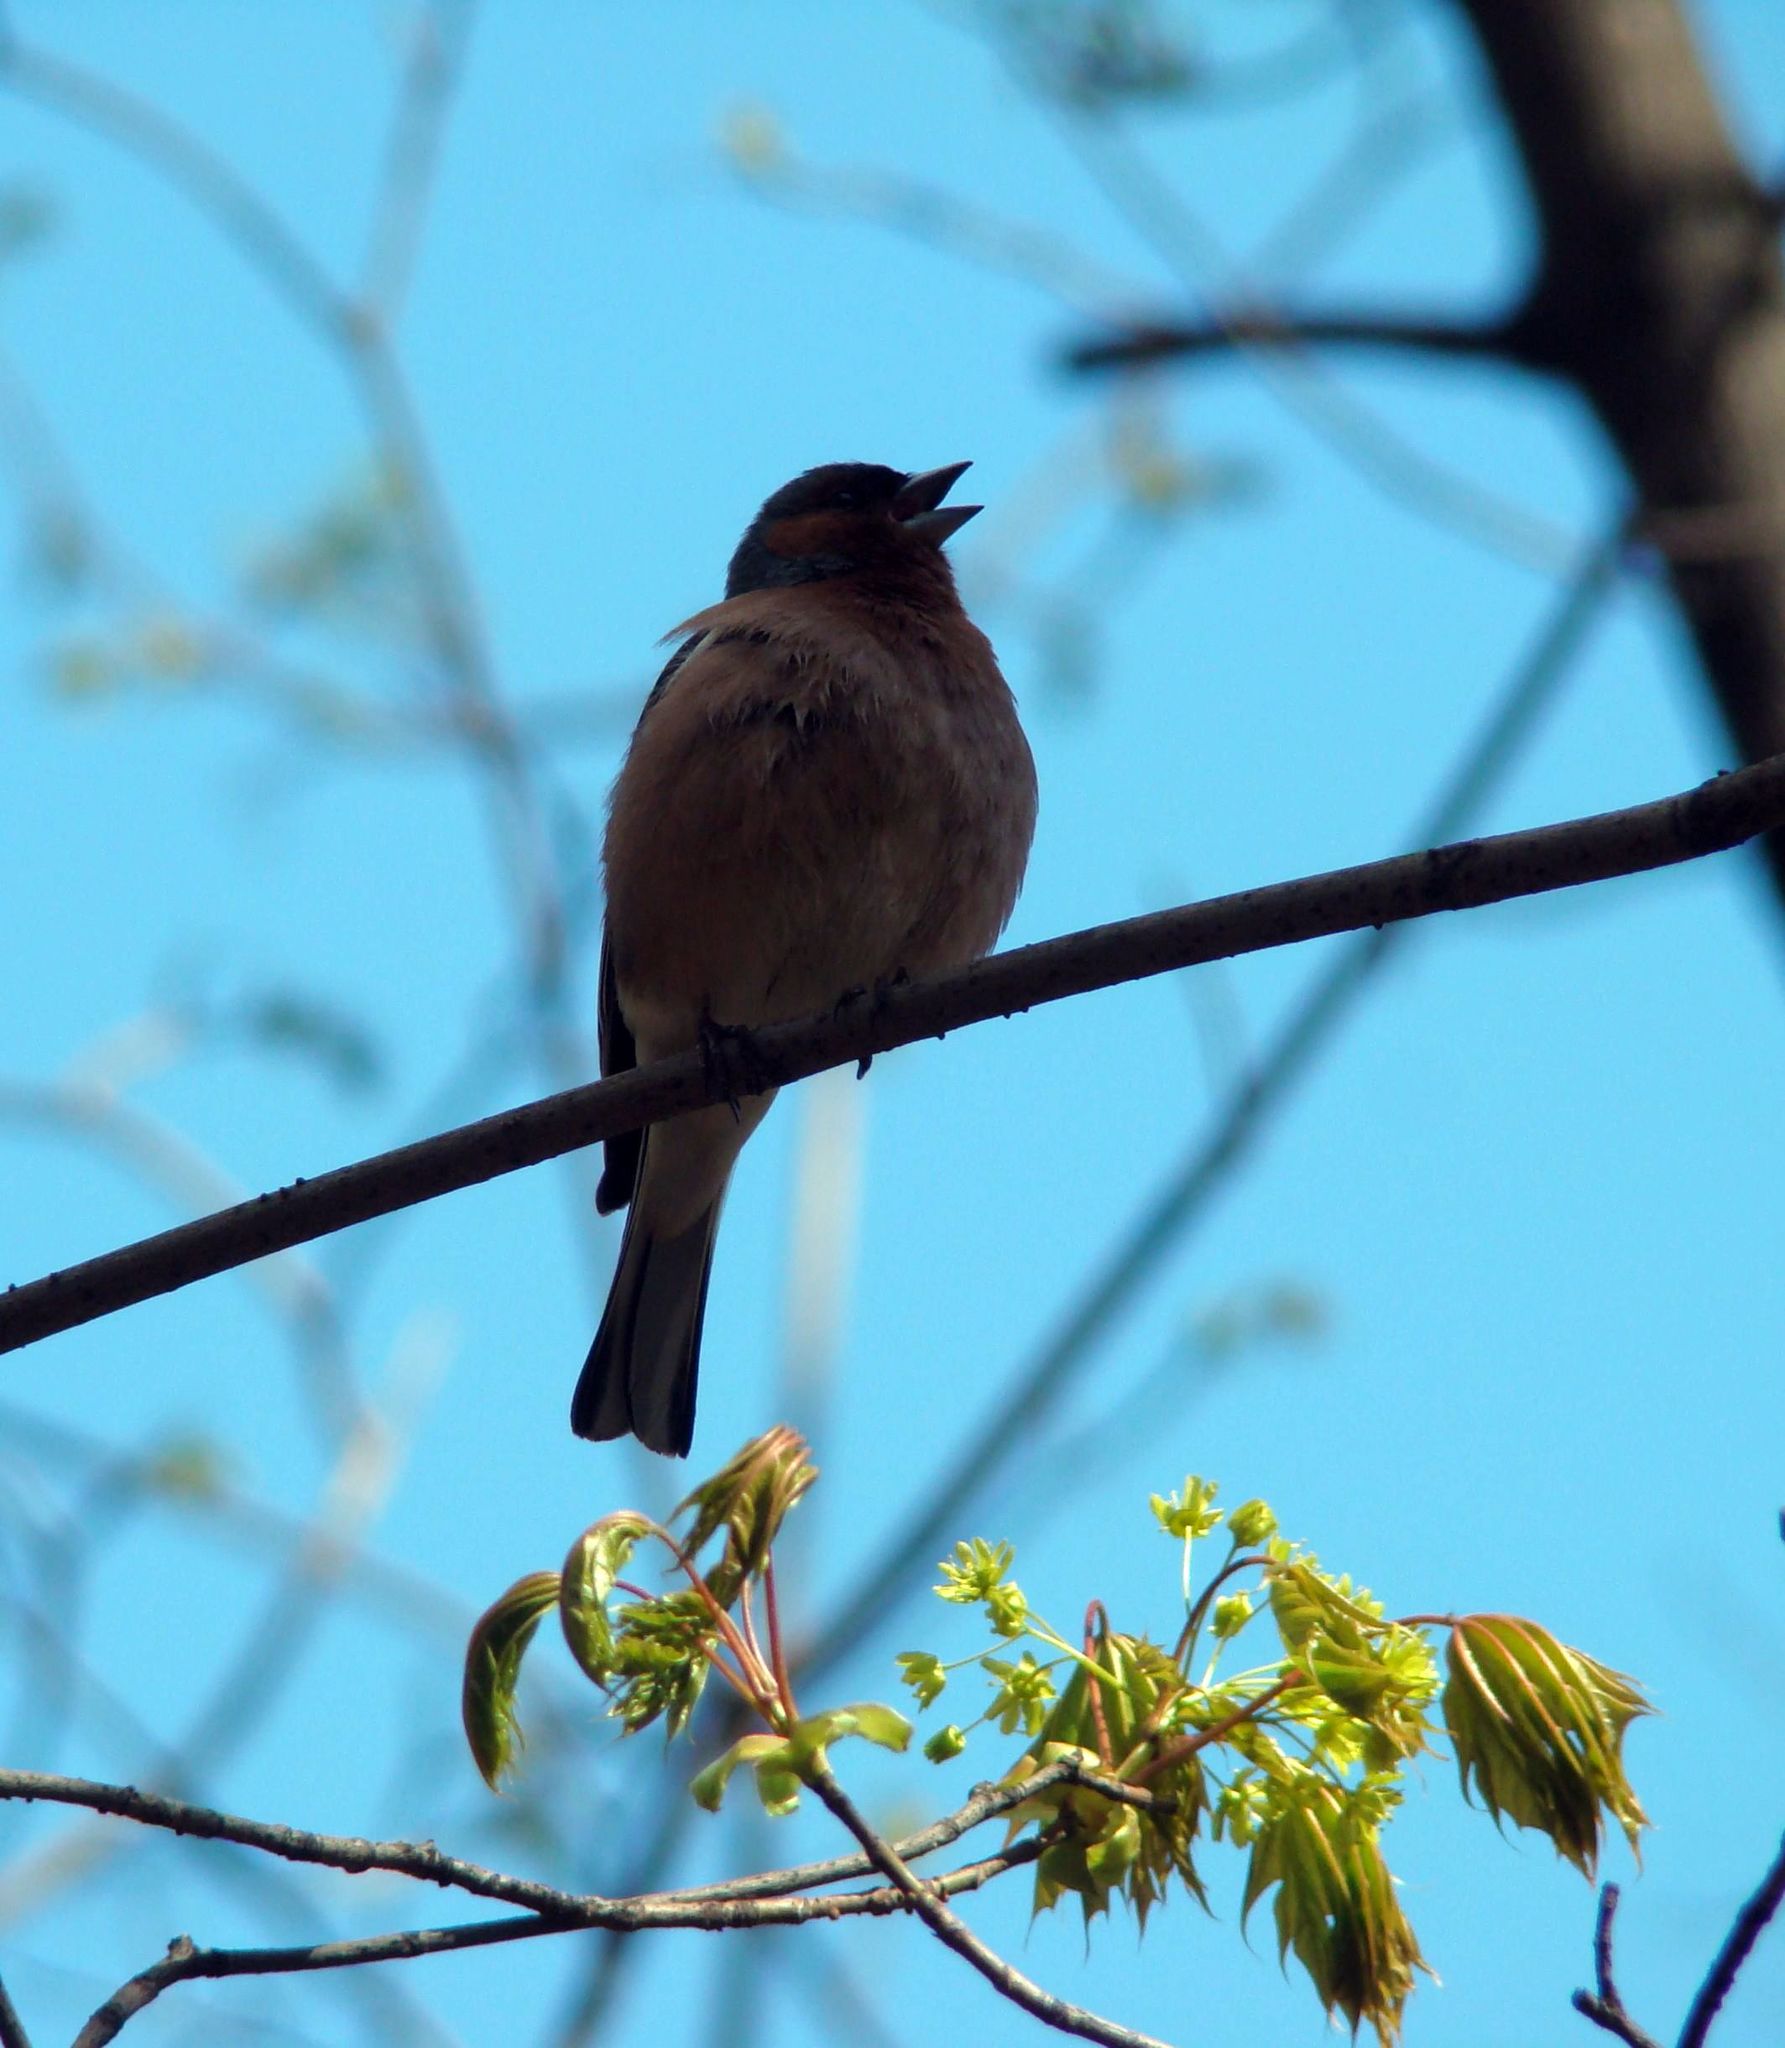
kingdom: Animalia
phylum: Chordata
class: Aves
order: Passeriformes
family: Fringillidae
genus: Fringilla
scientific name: Fringilla coelebs
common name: Common chaffinch
